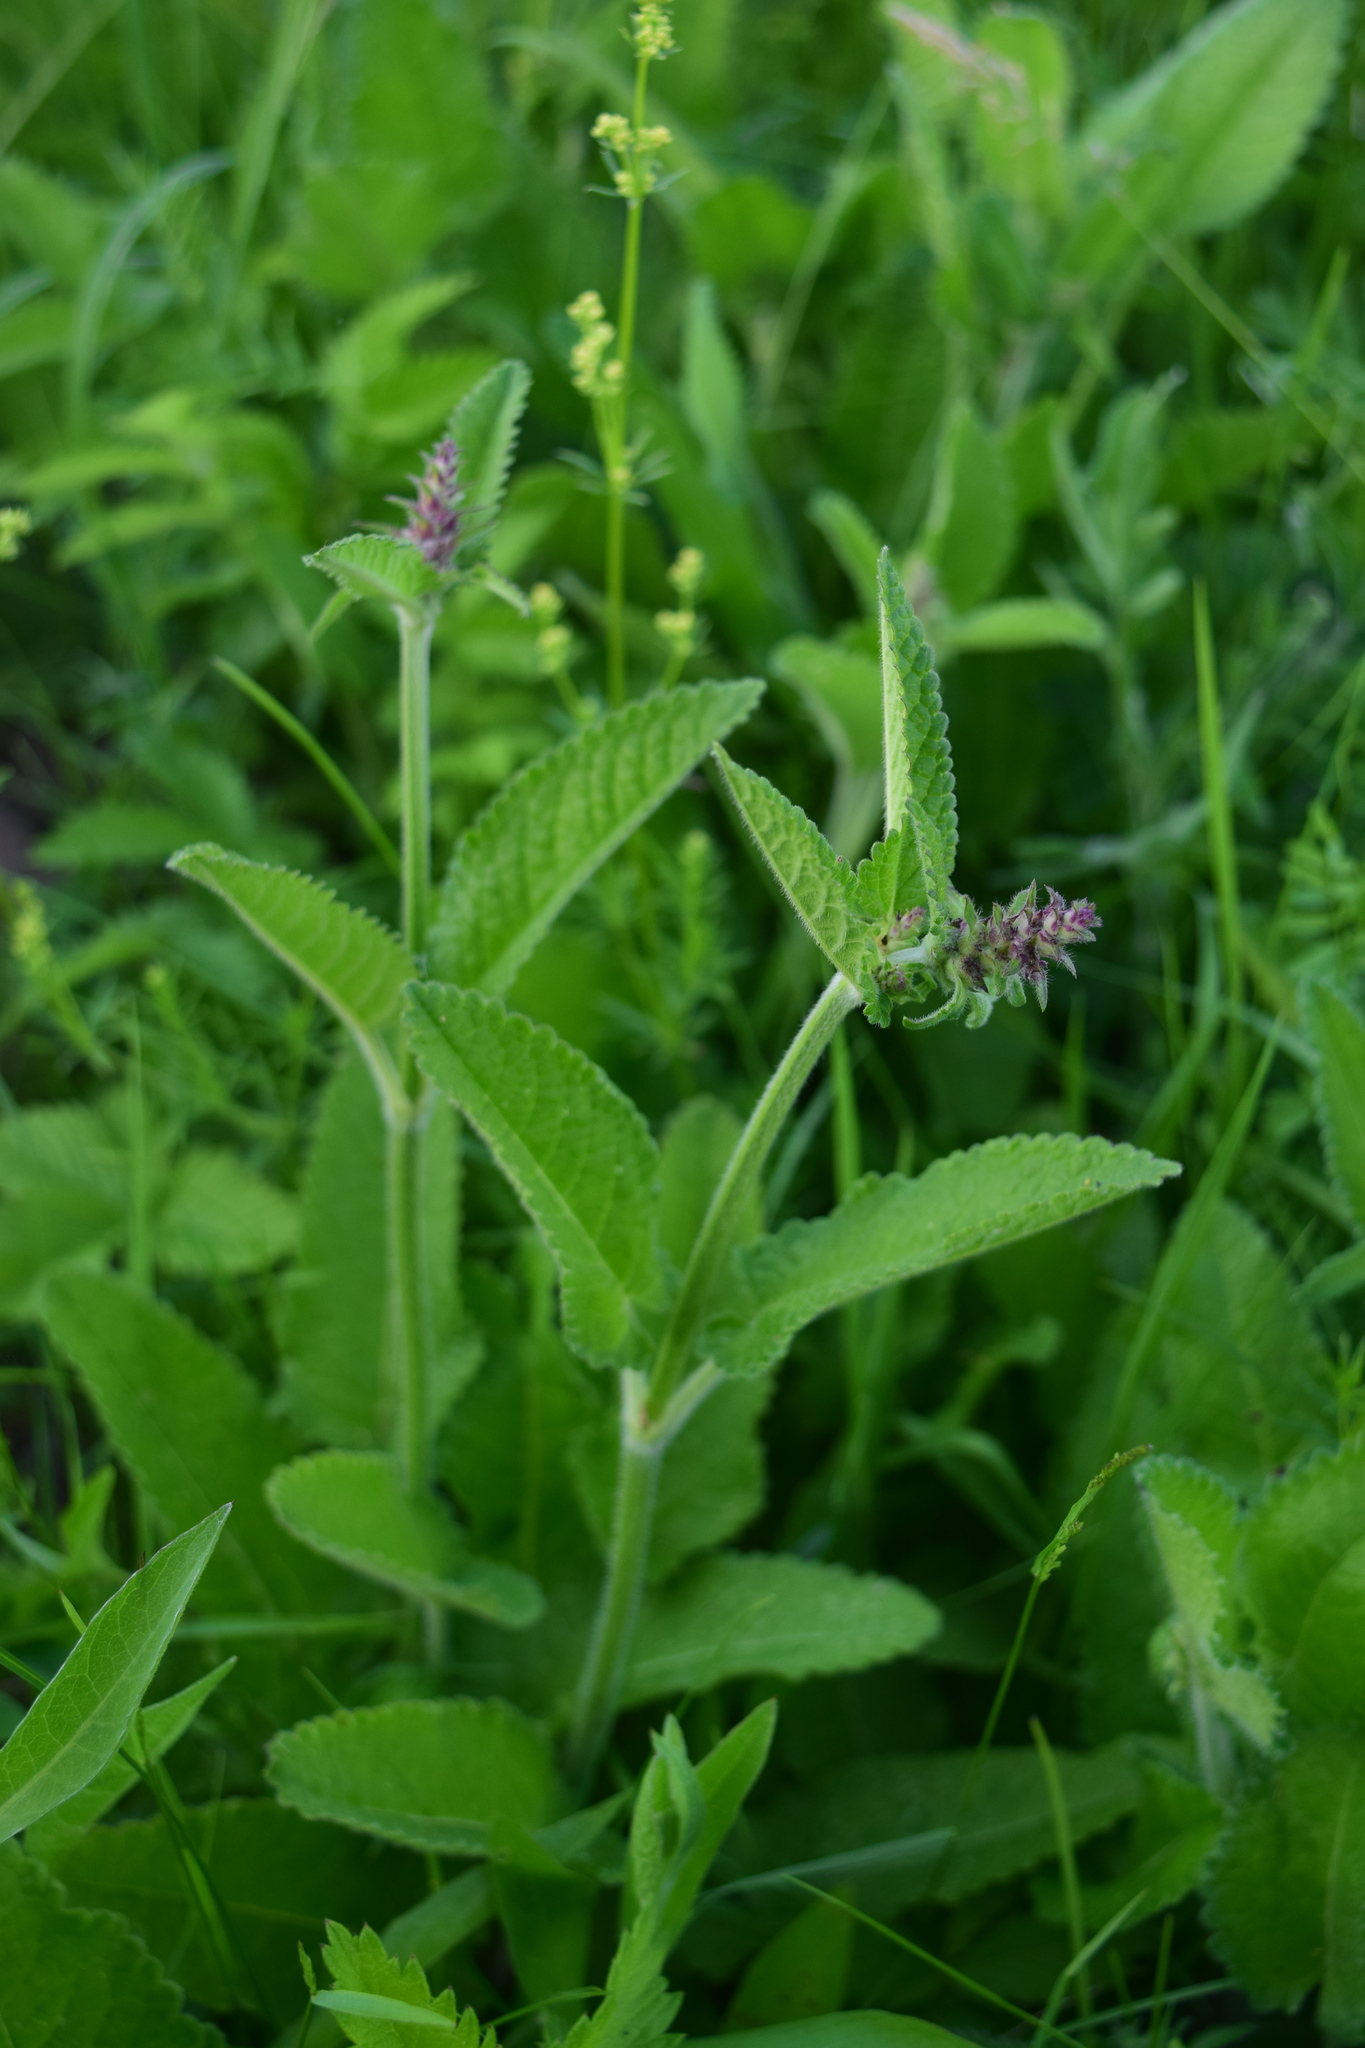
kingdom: Plantae
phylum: Tracheophyta
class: Magnoliopsida
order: Lamiales
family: Lamiaceae
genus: Betonica
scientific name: Betonica officinalis
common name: Bishop's-wort
